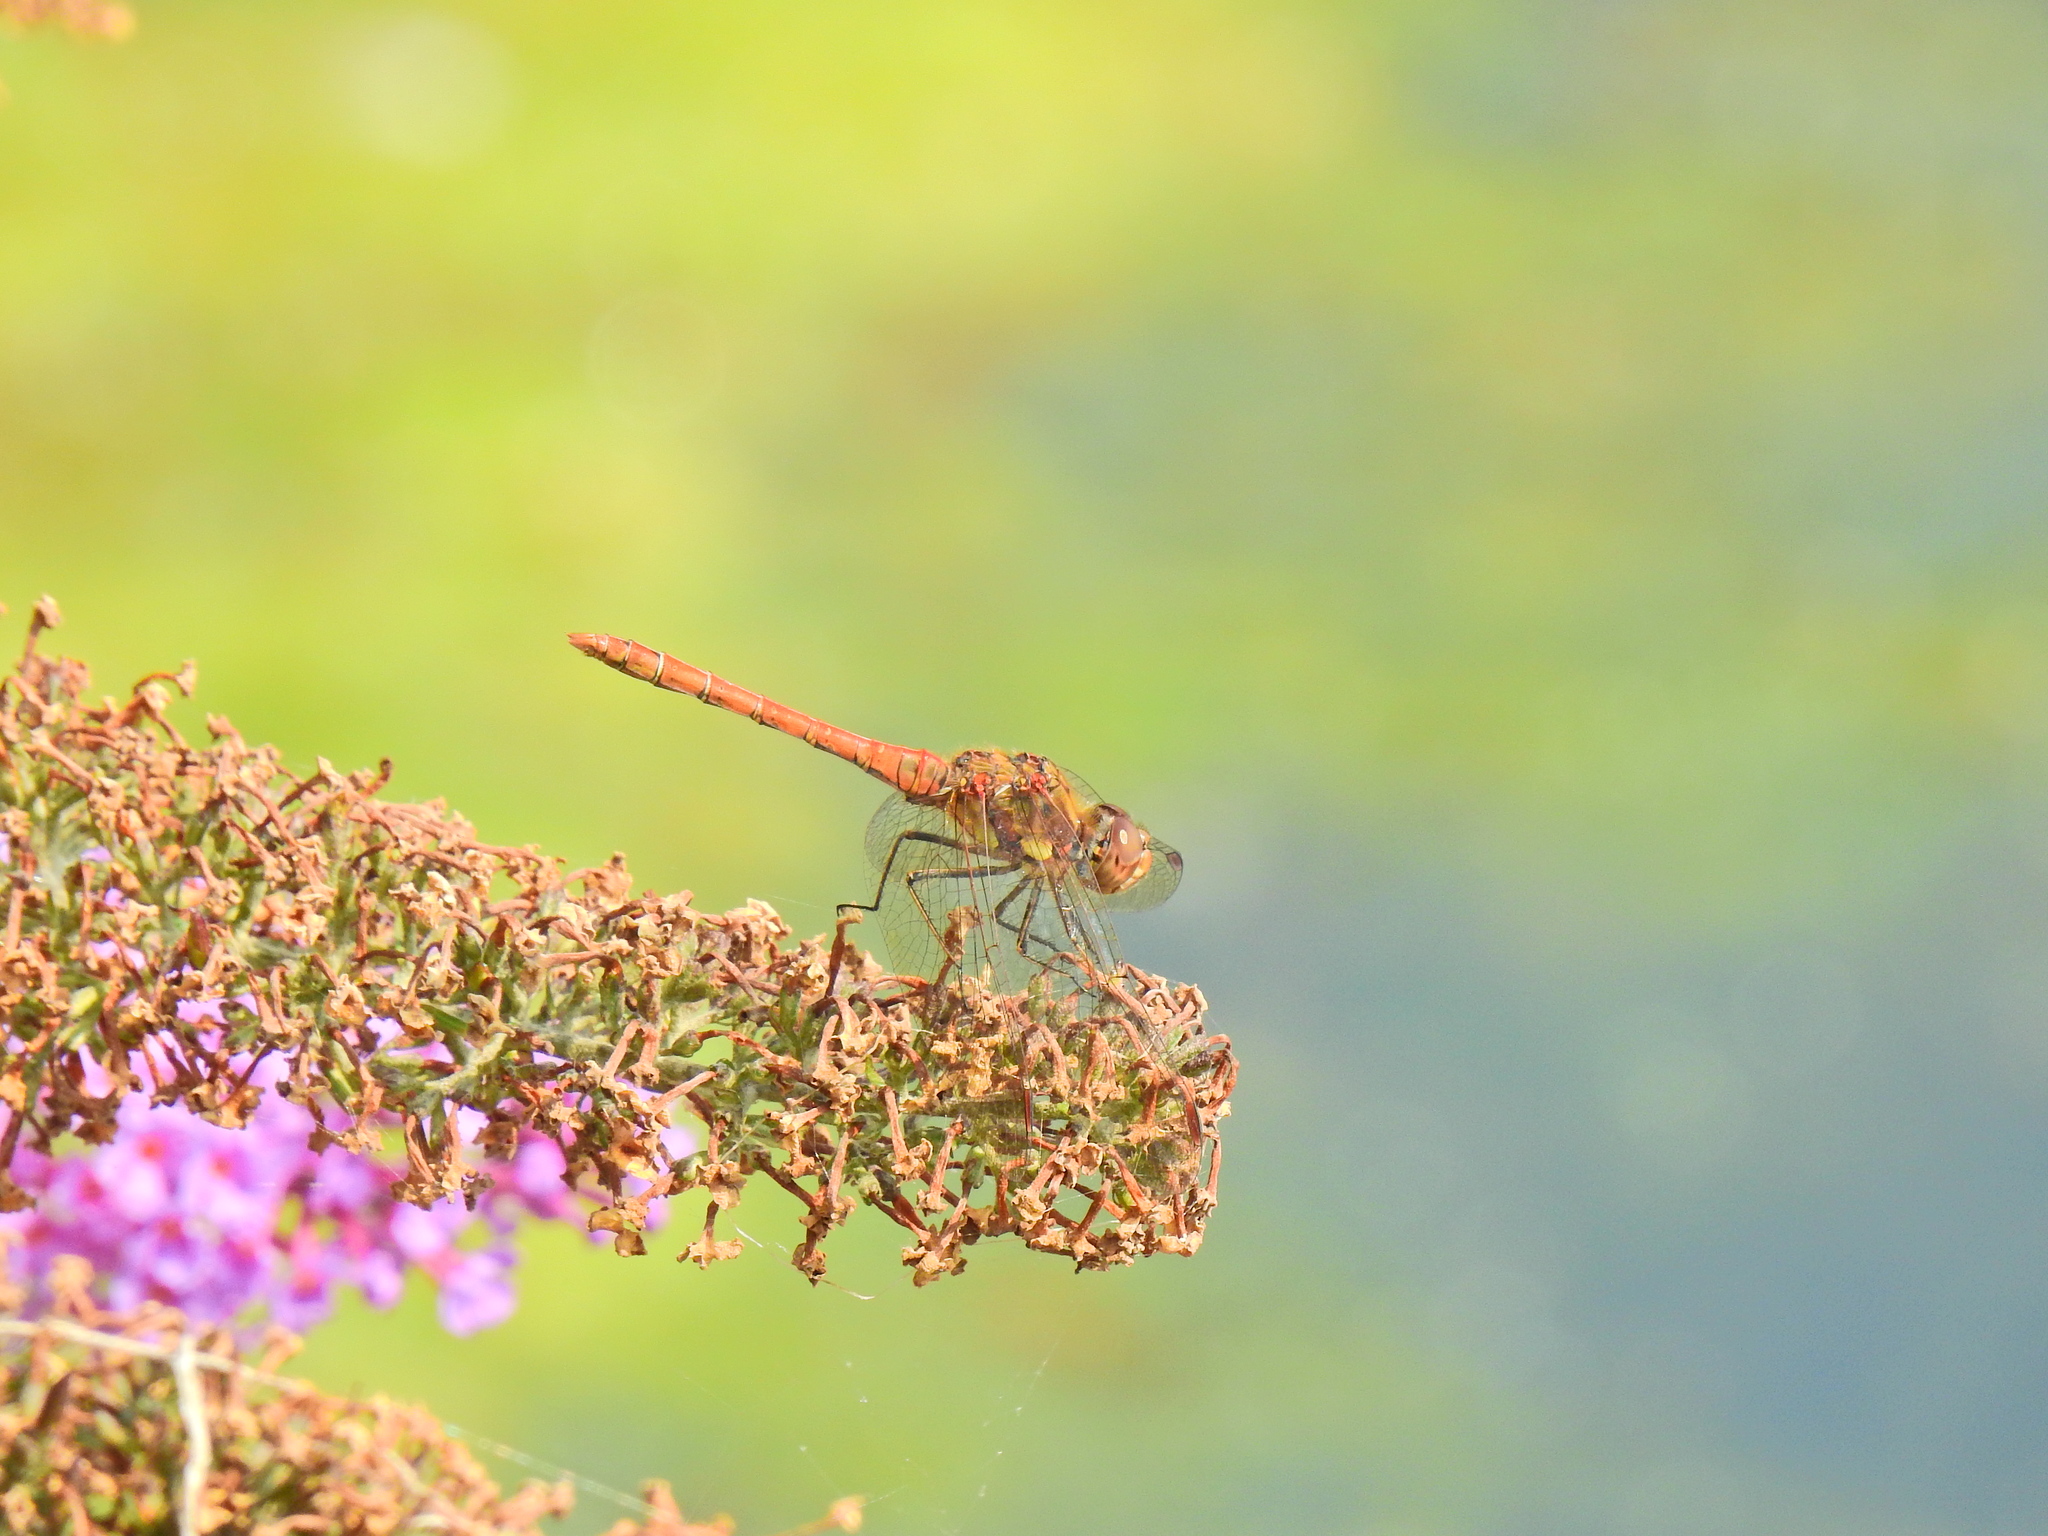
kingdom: Animalia
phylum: Arthropoda
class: Insecta
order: Odonata
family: Libellulidae
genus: Sympetrum
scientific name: Sympetrum striolatum
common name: Common darter
